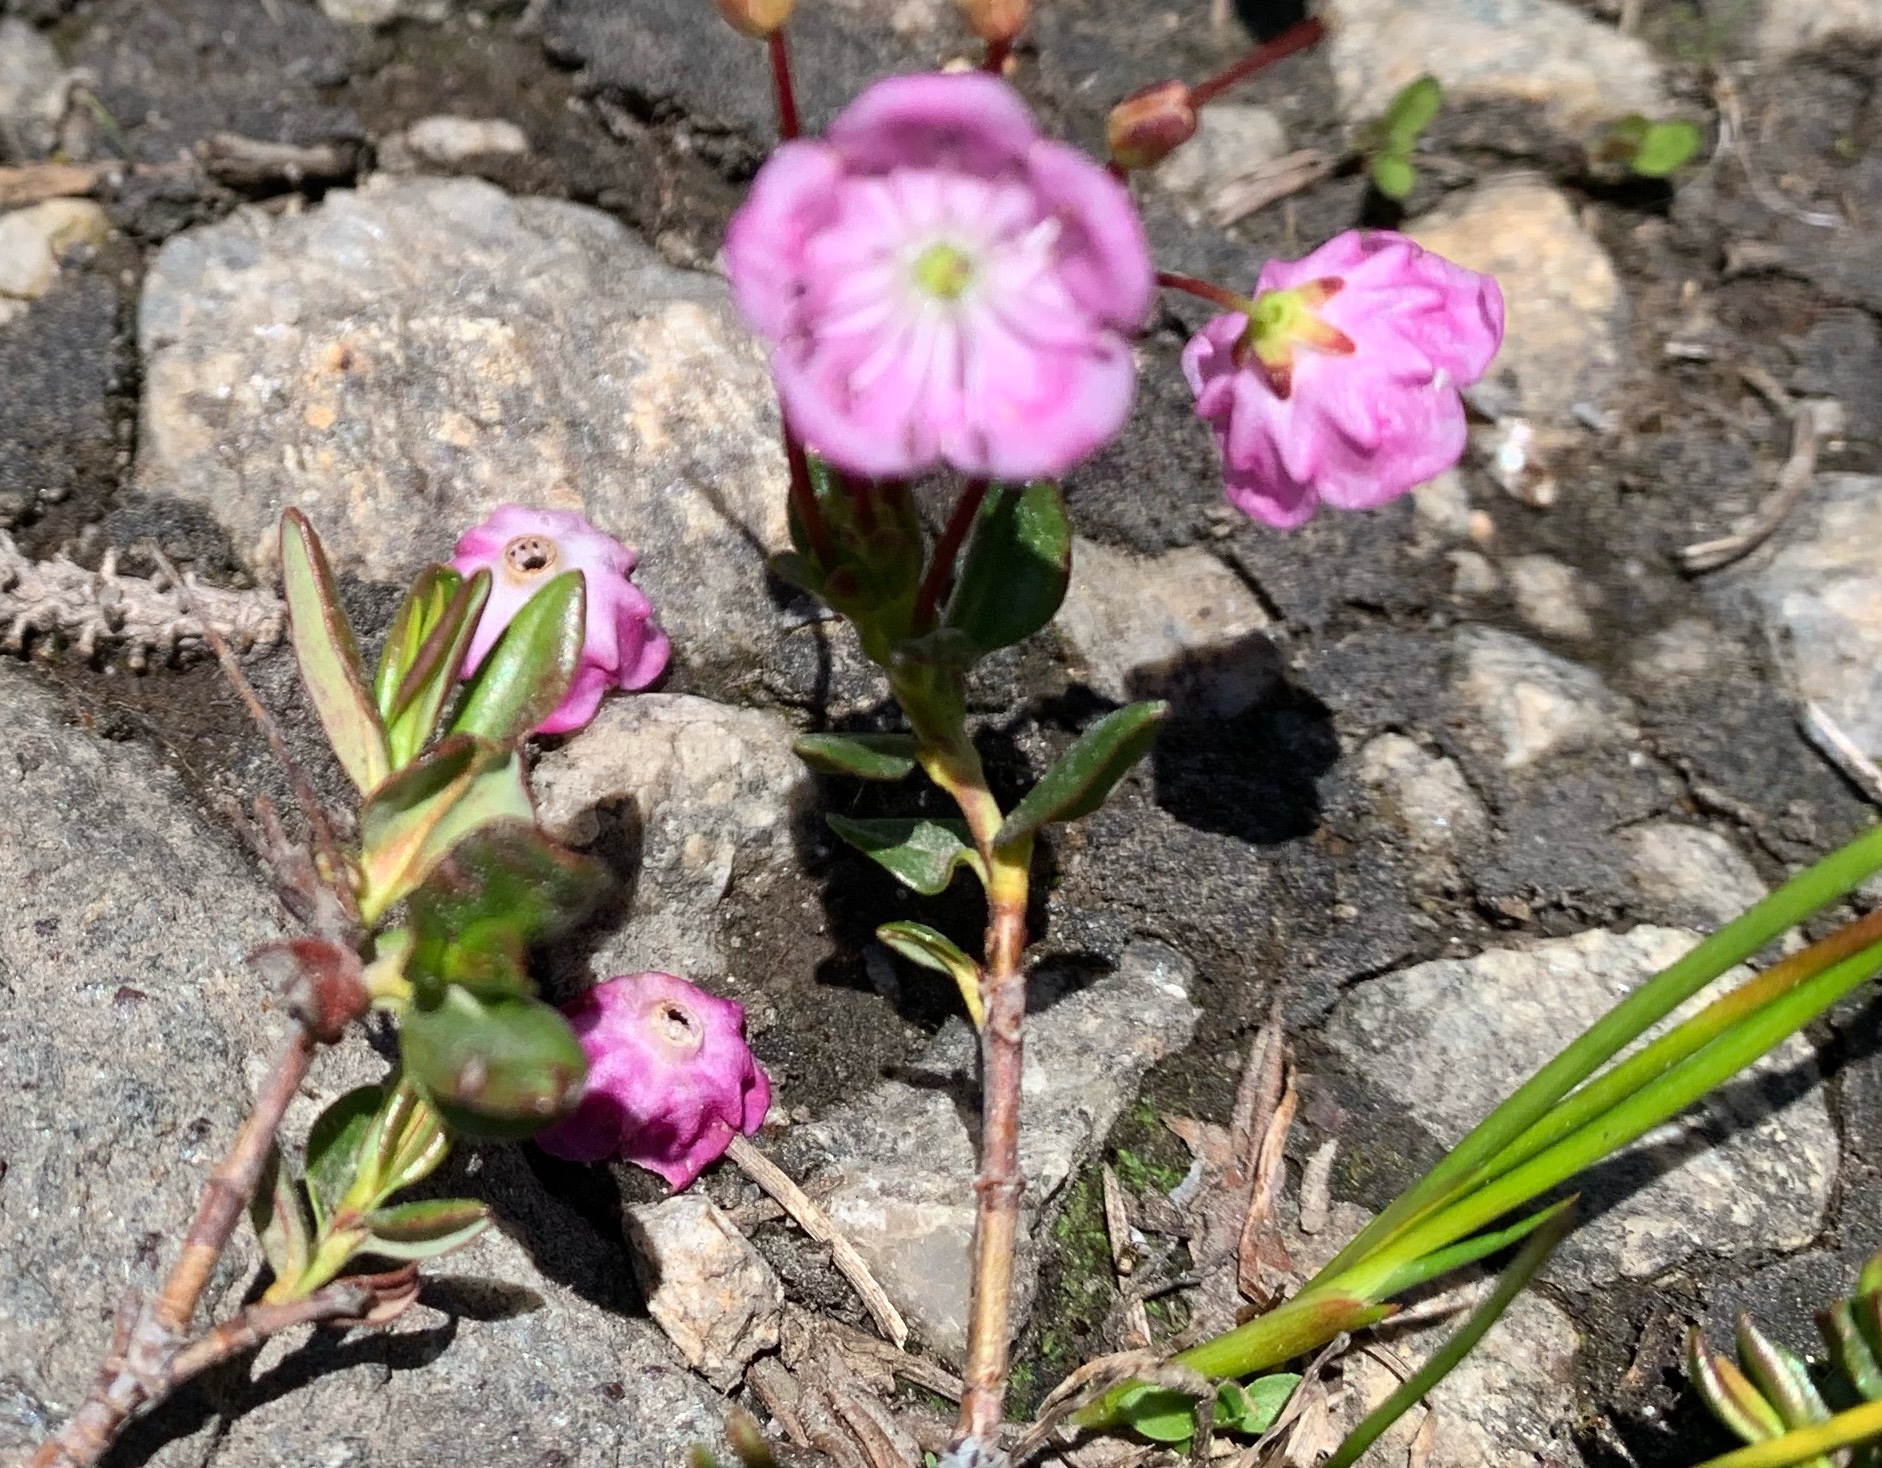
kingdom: Plantae
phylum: Tracheophyta
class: Magnoliopsida
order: Ericales
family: Ericaceae
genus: Kalmia
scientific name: Kalmia microphylla
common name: Alpine bog laurel
